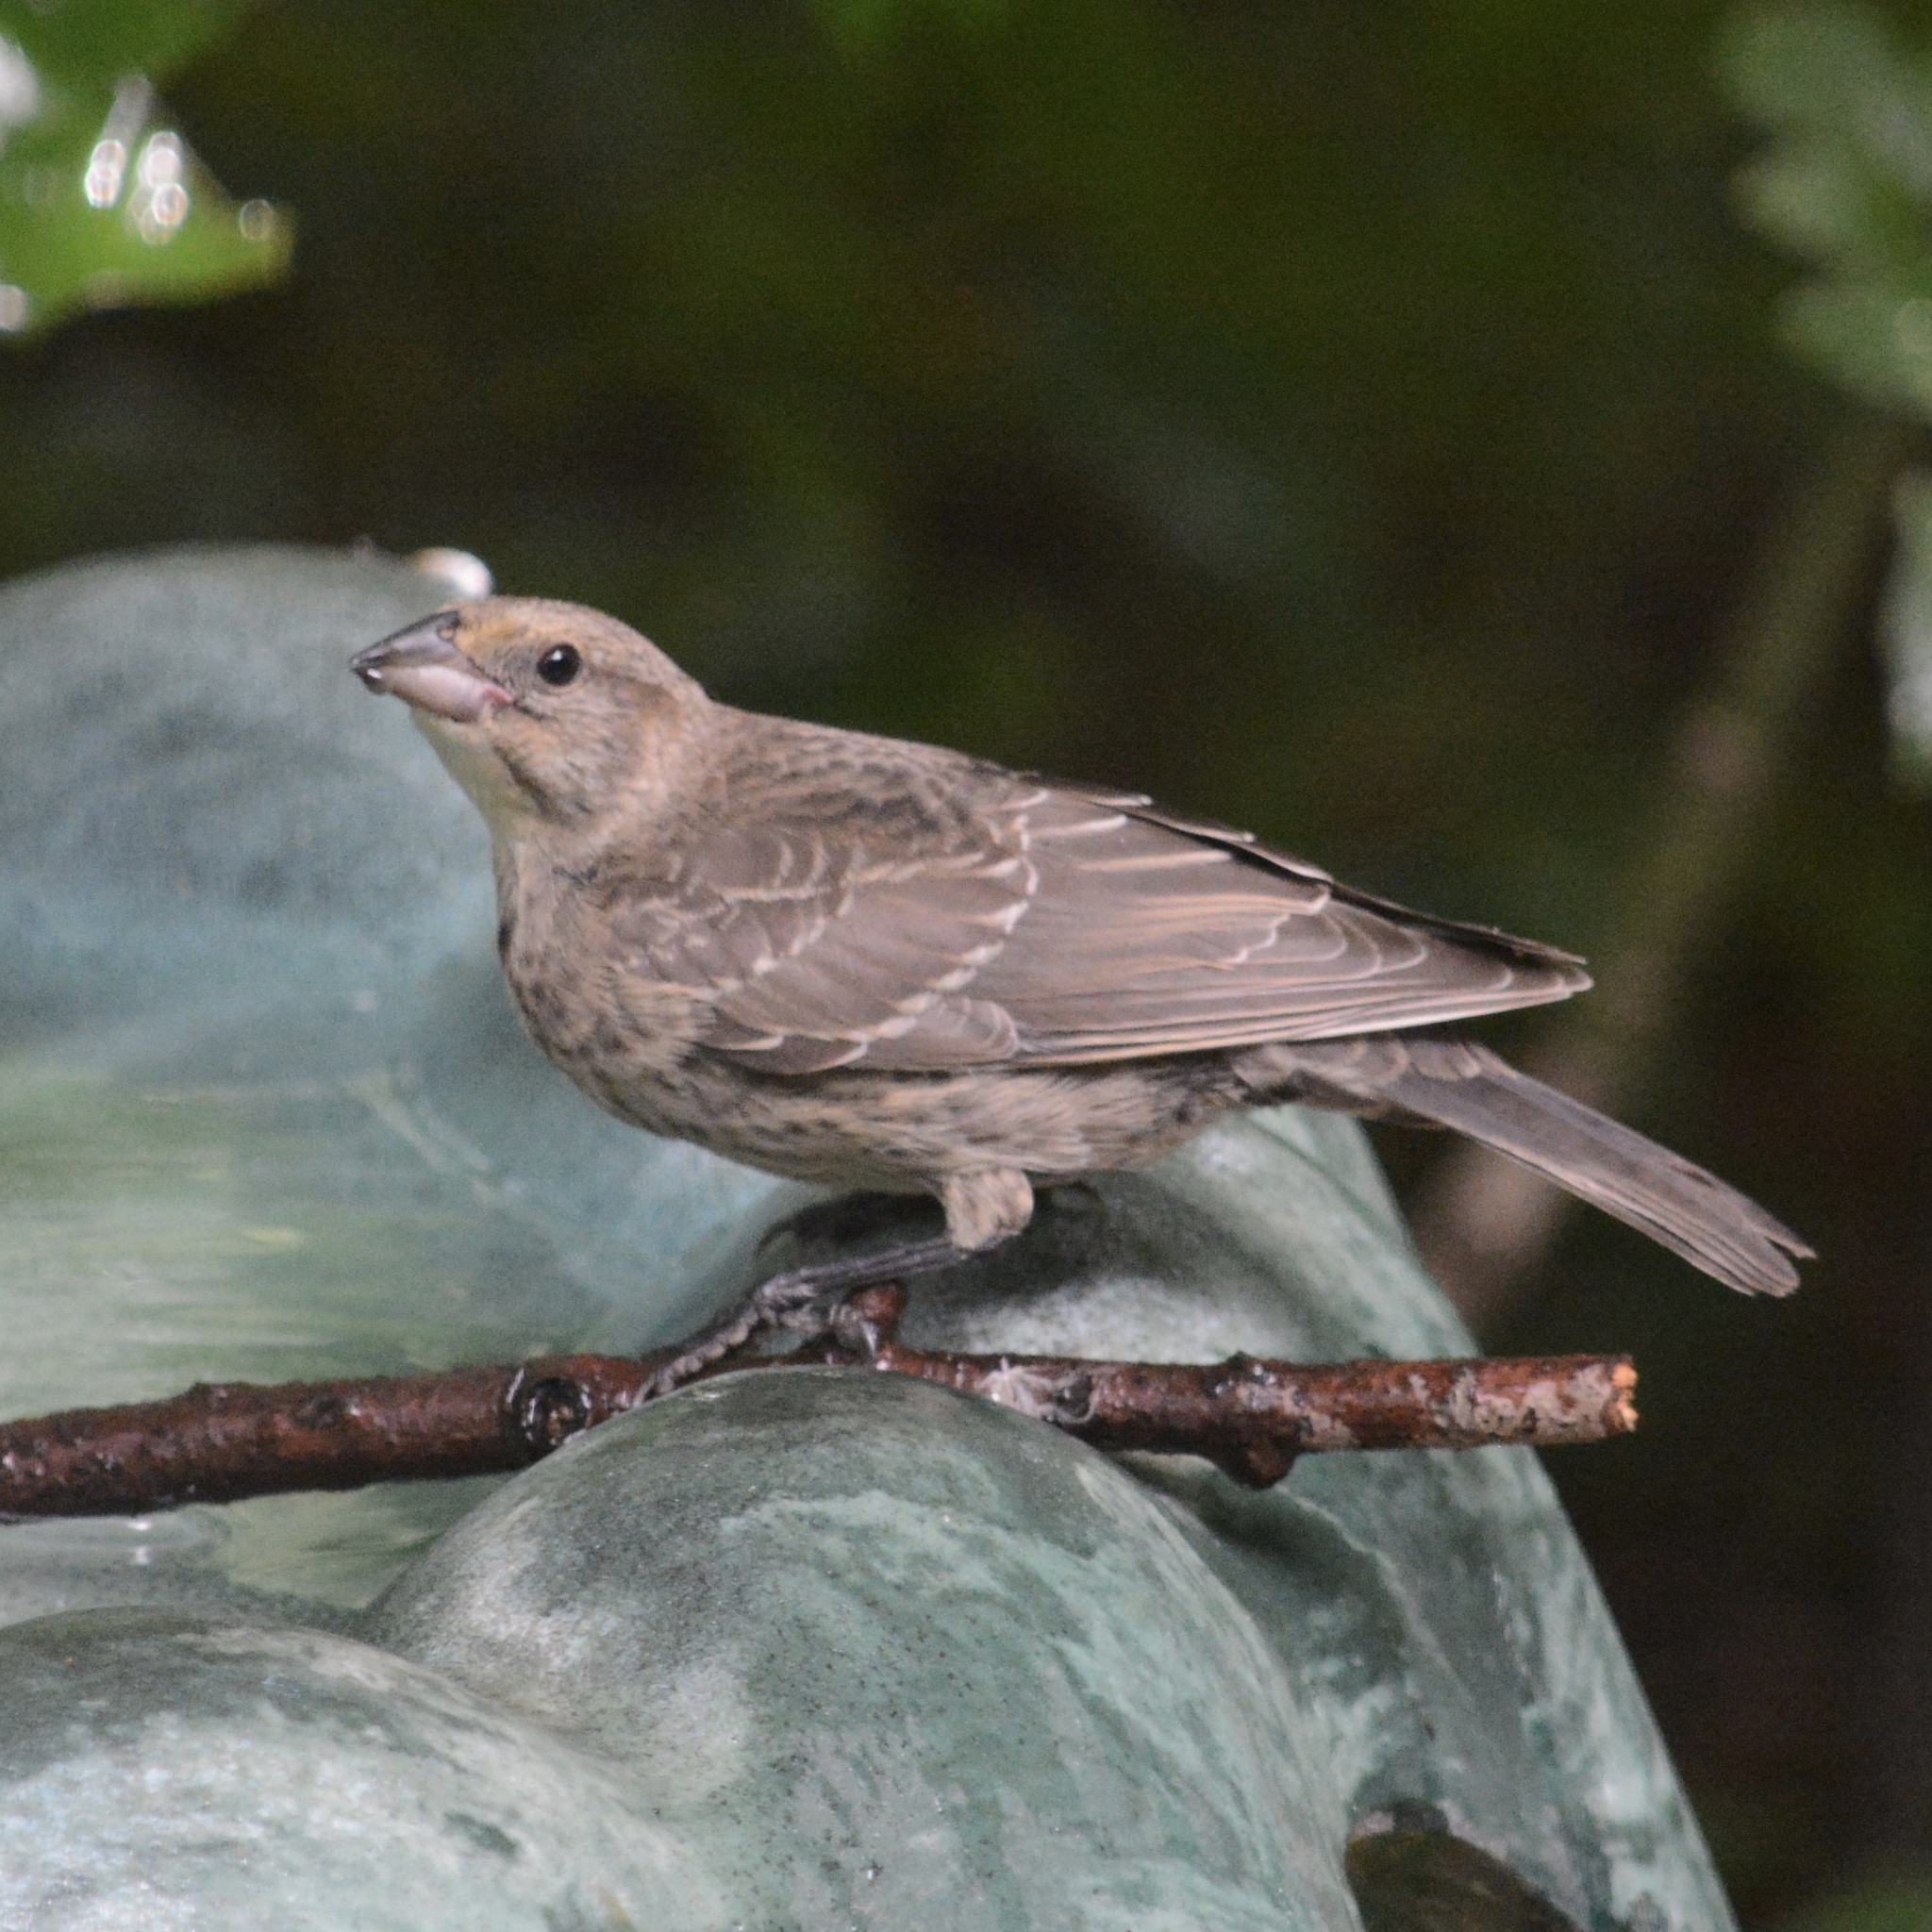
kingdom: Animalia
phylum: Chordata
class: Aves
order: Passeriformes
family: Icteridae
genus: Molothrus
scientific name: Molothrus ater
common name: Brown-headed cowbird
